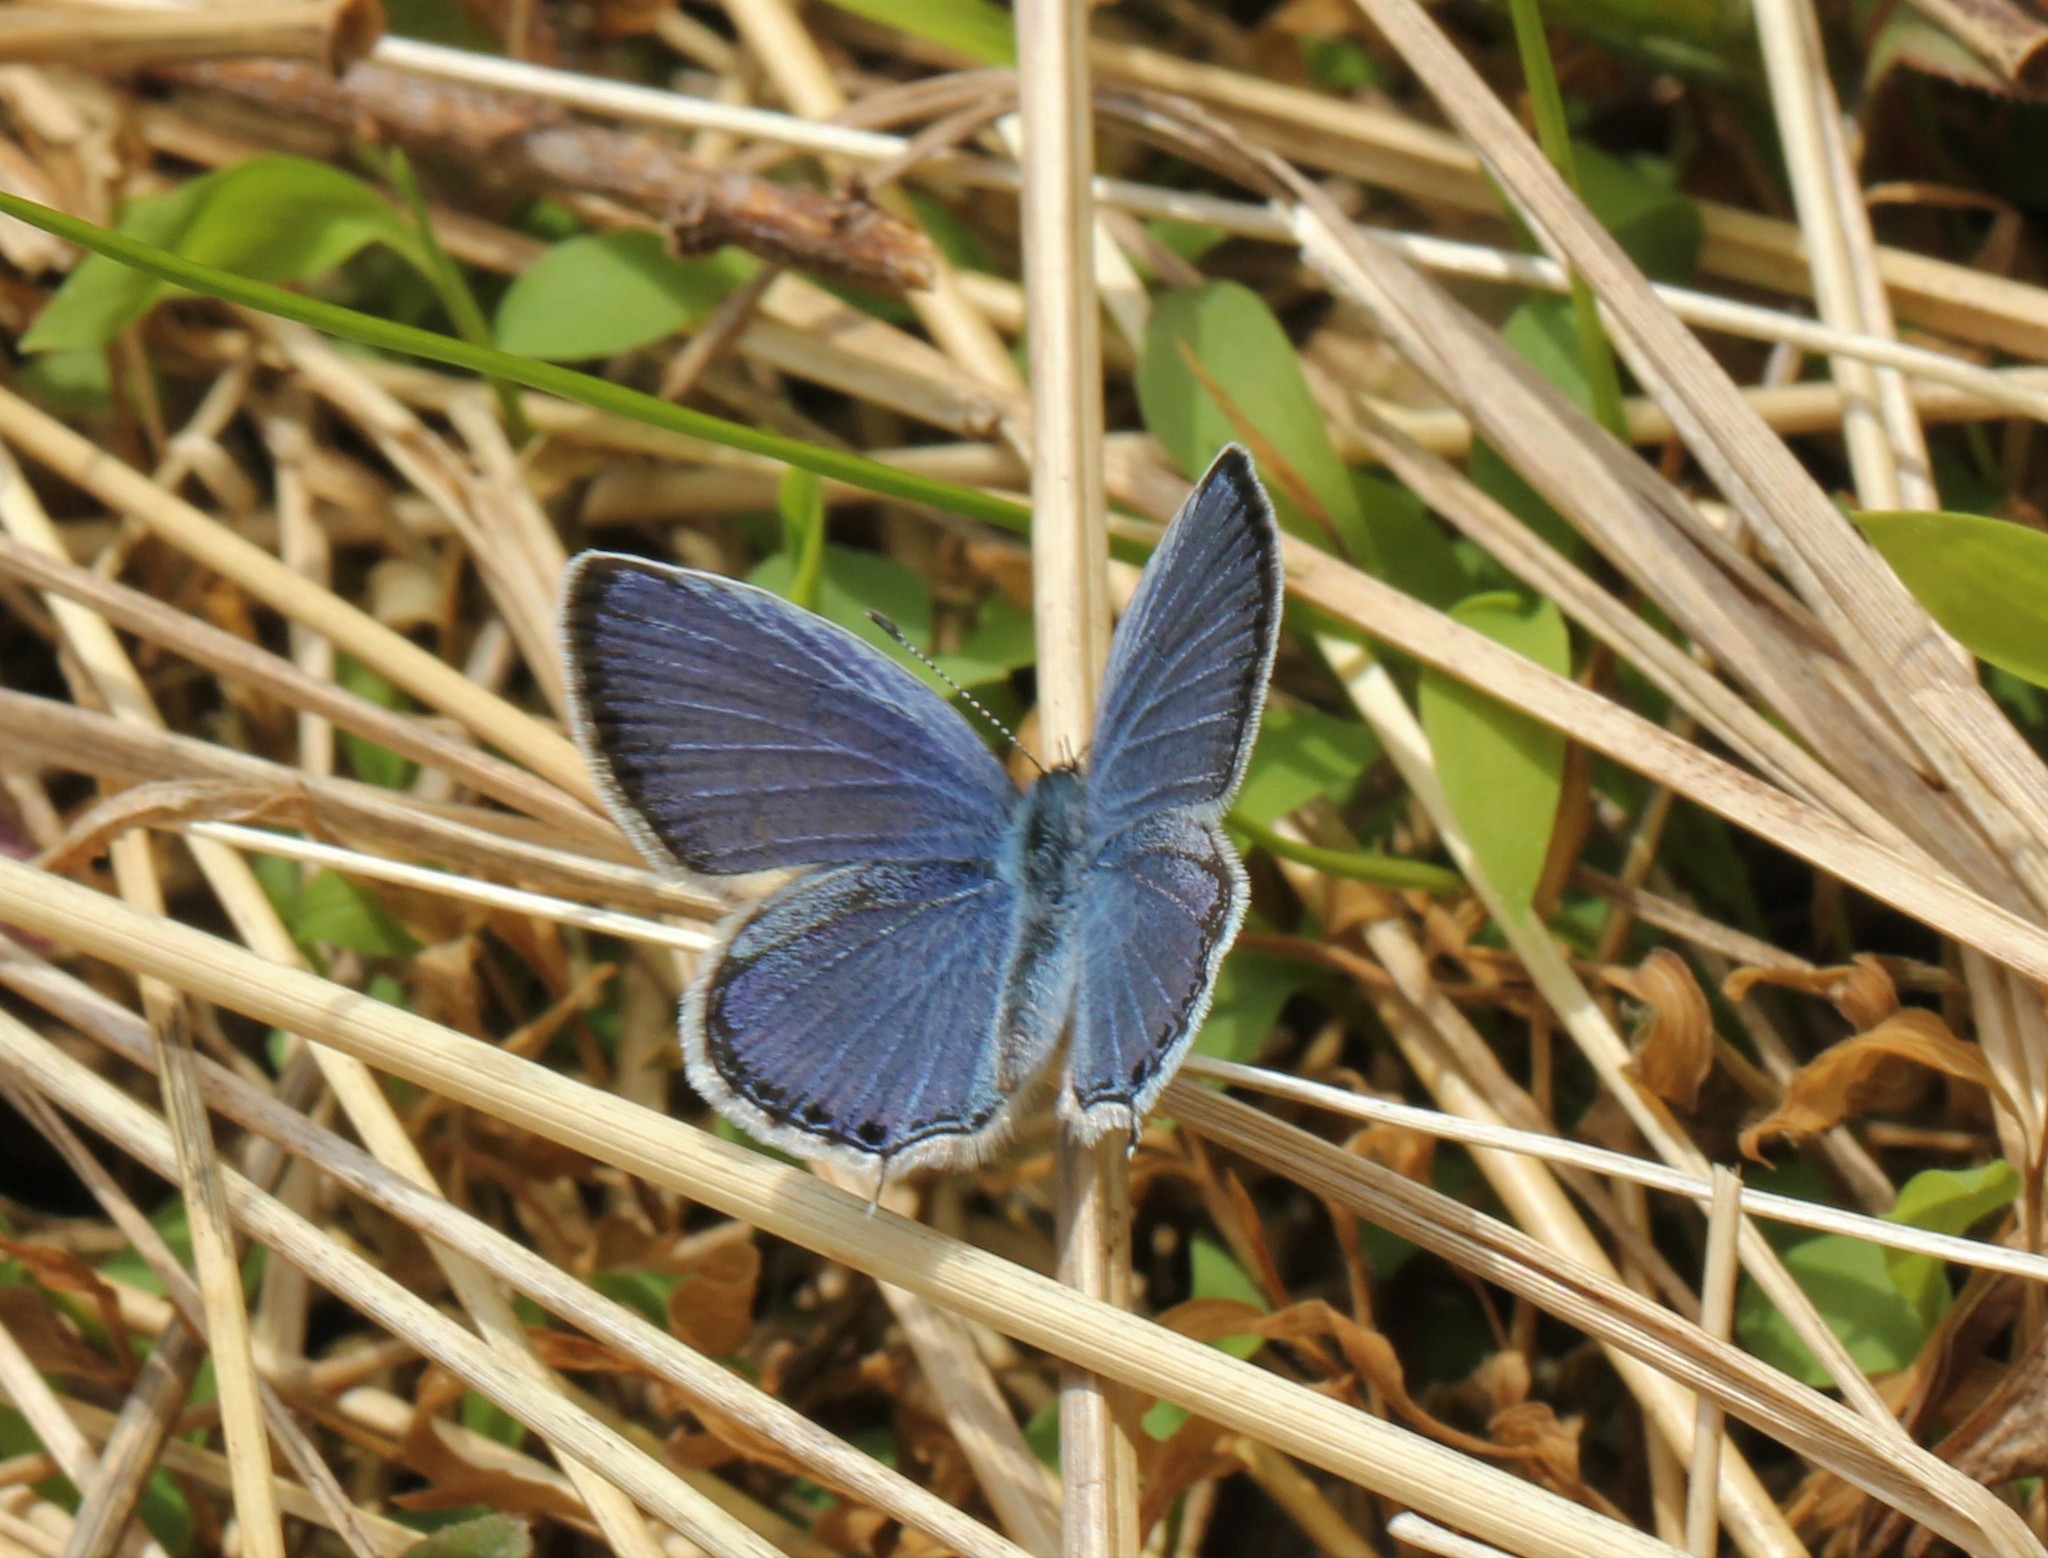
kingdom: Animalia
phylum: Arthropoda
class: Insecta
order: Lepidoptera
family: Lycaenidae
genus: Elkalyce
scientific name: Elkalyce comyntas
